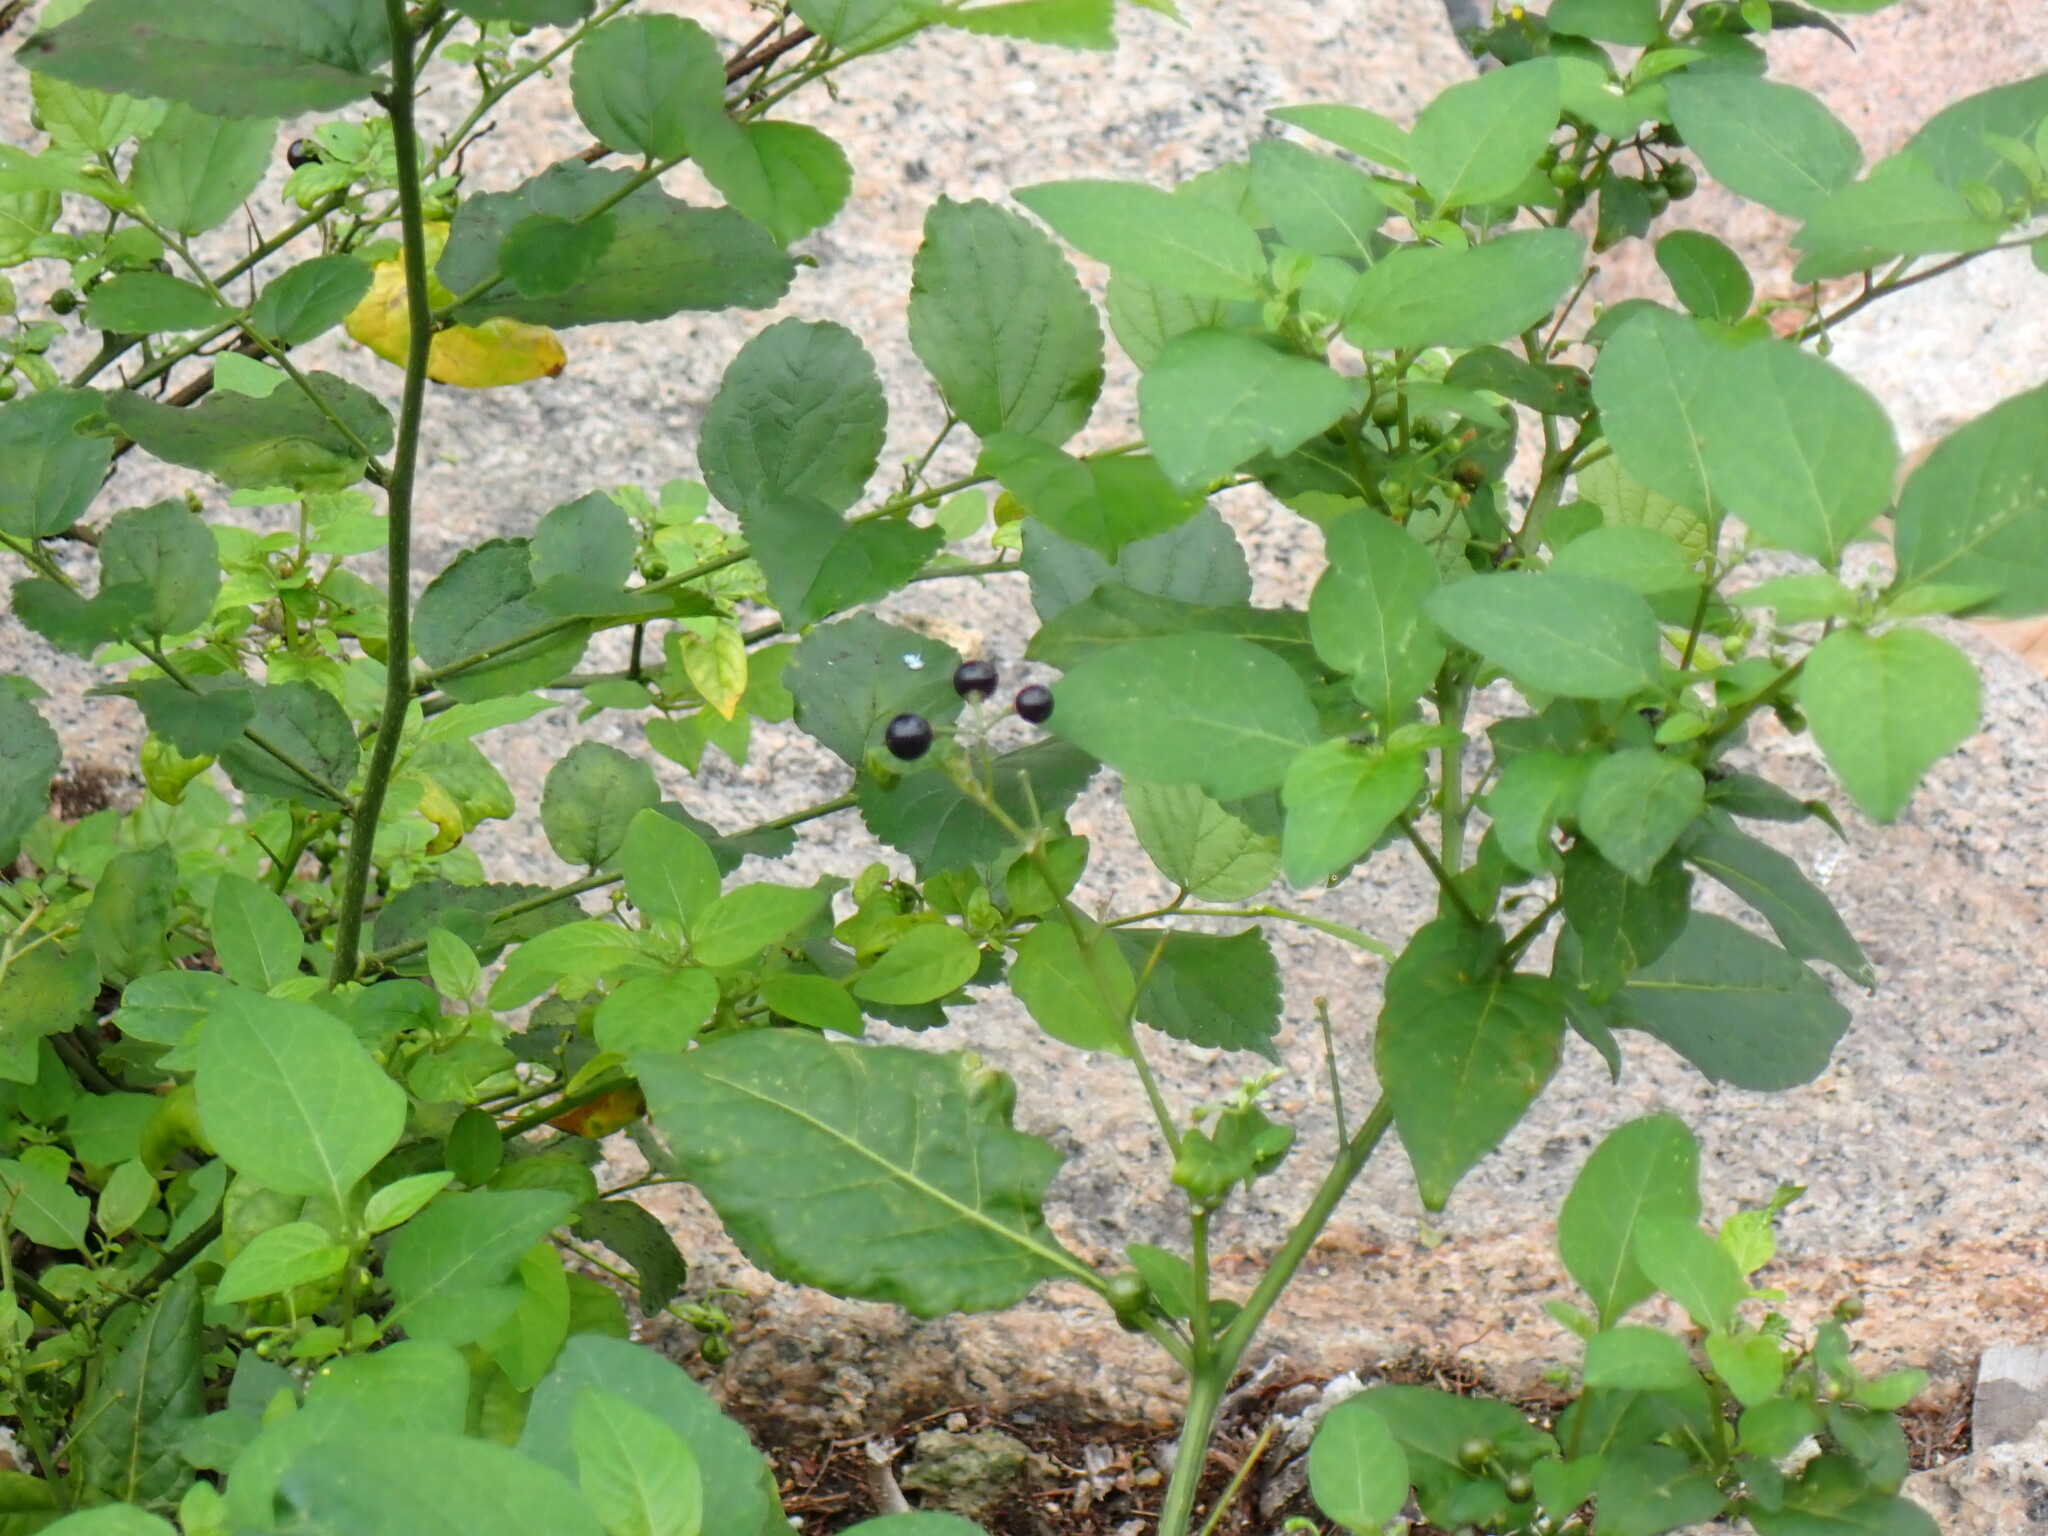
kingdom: Plantae
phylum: Tracheophyta
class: Magnoliopsida
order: Solanales
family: Solanaceae
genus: Solanum
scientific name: Solanum americanum
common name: American black nightshade
